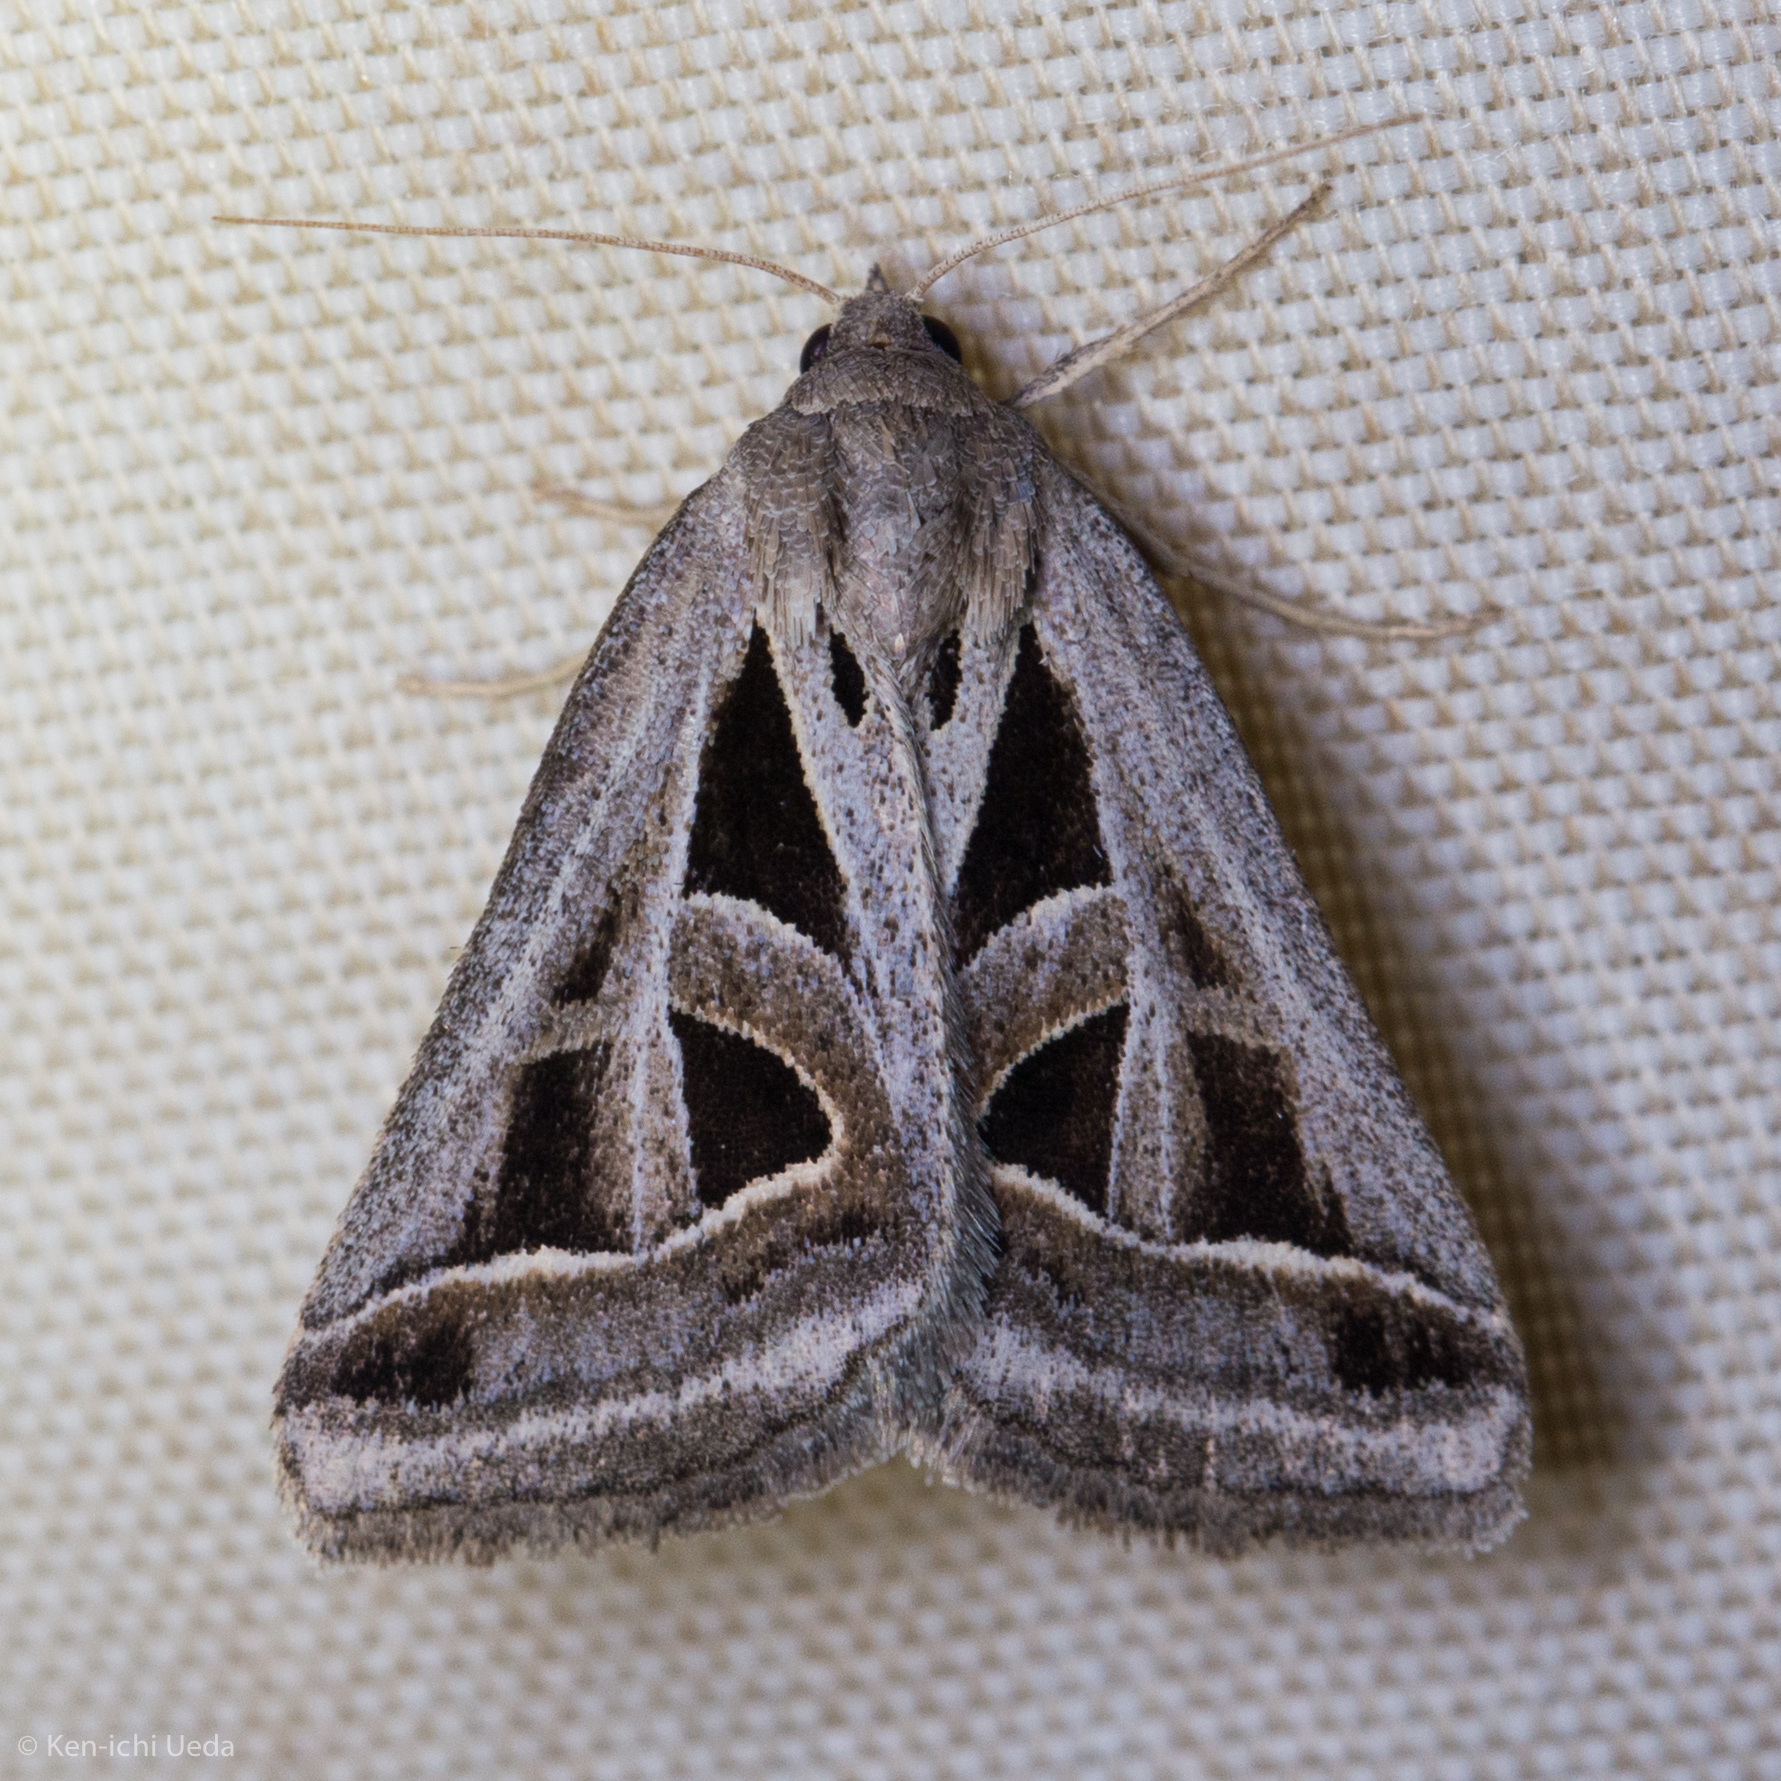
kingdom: Animalia
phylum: Arthropoda
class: Insecta
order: Lepidoptera
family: Erebidae
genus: Callistege
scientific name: Callistege diagonalis
